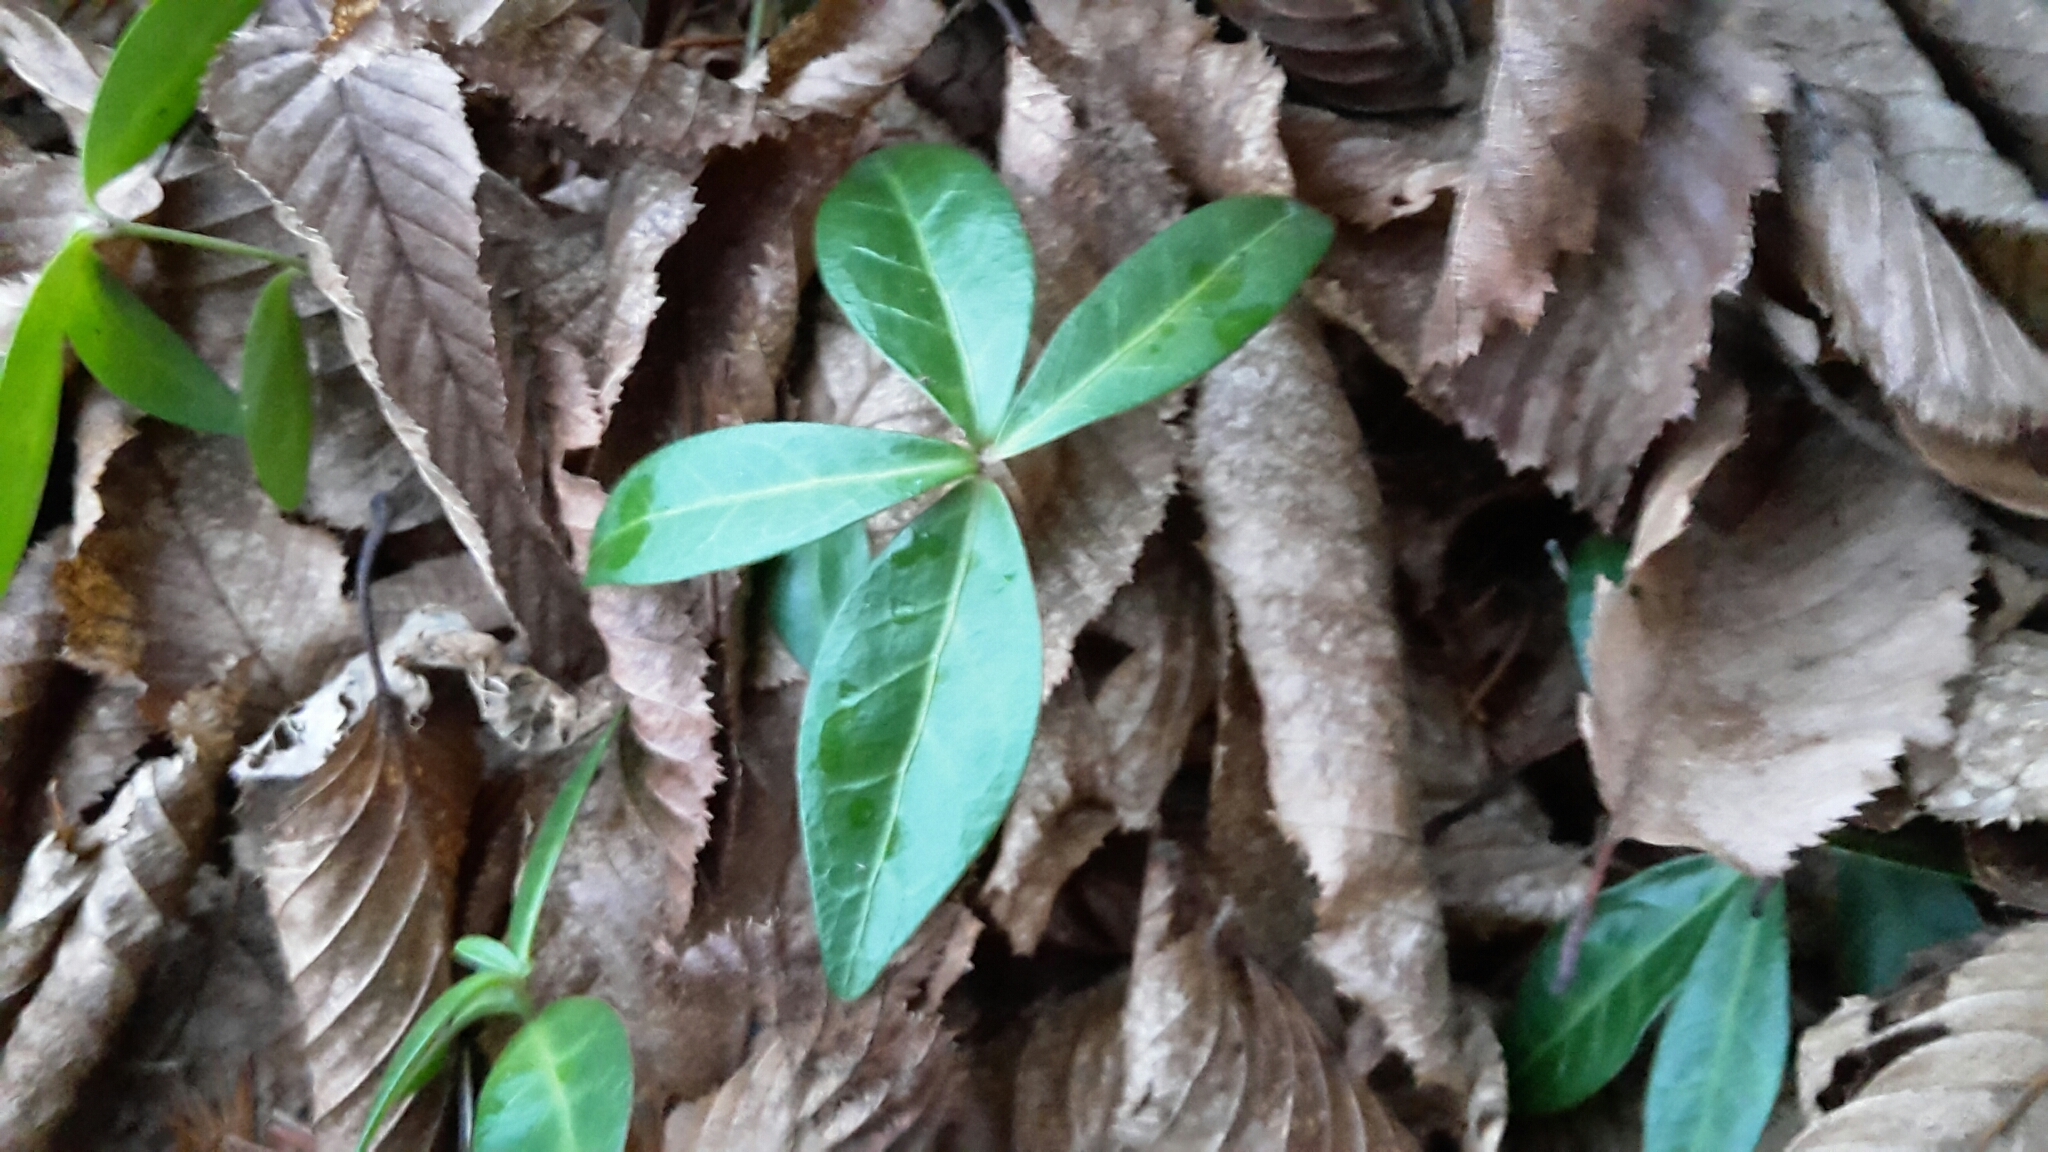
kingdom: Plantae
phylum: Tracheophyta
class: Magnoliopsida
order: Gentianales
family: Apocynaceae
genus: Vinca
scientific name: Vinca minor
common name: Lesser periwinkle
